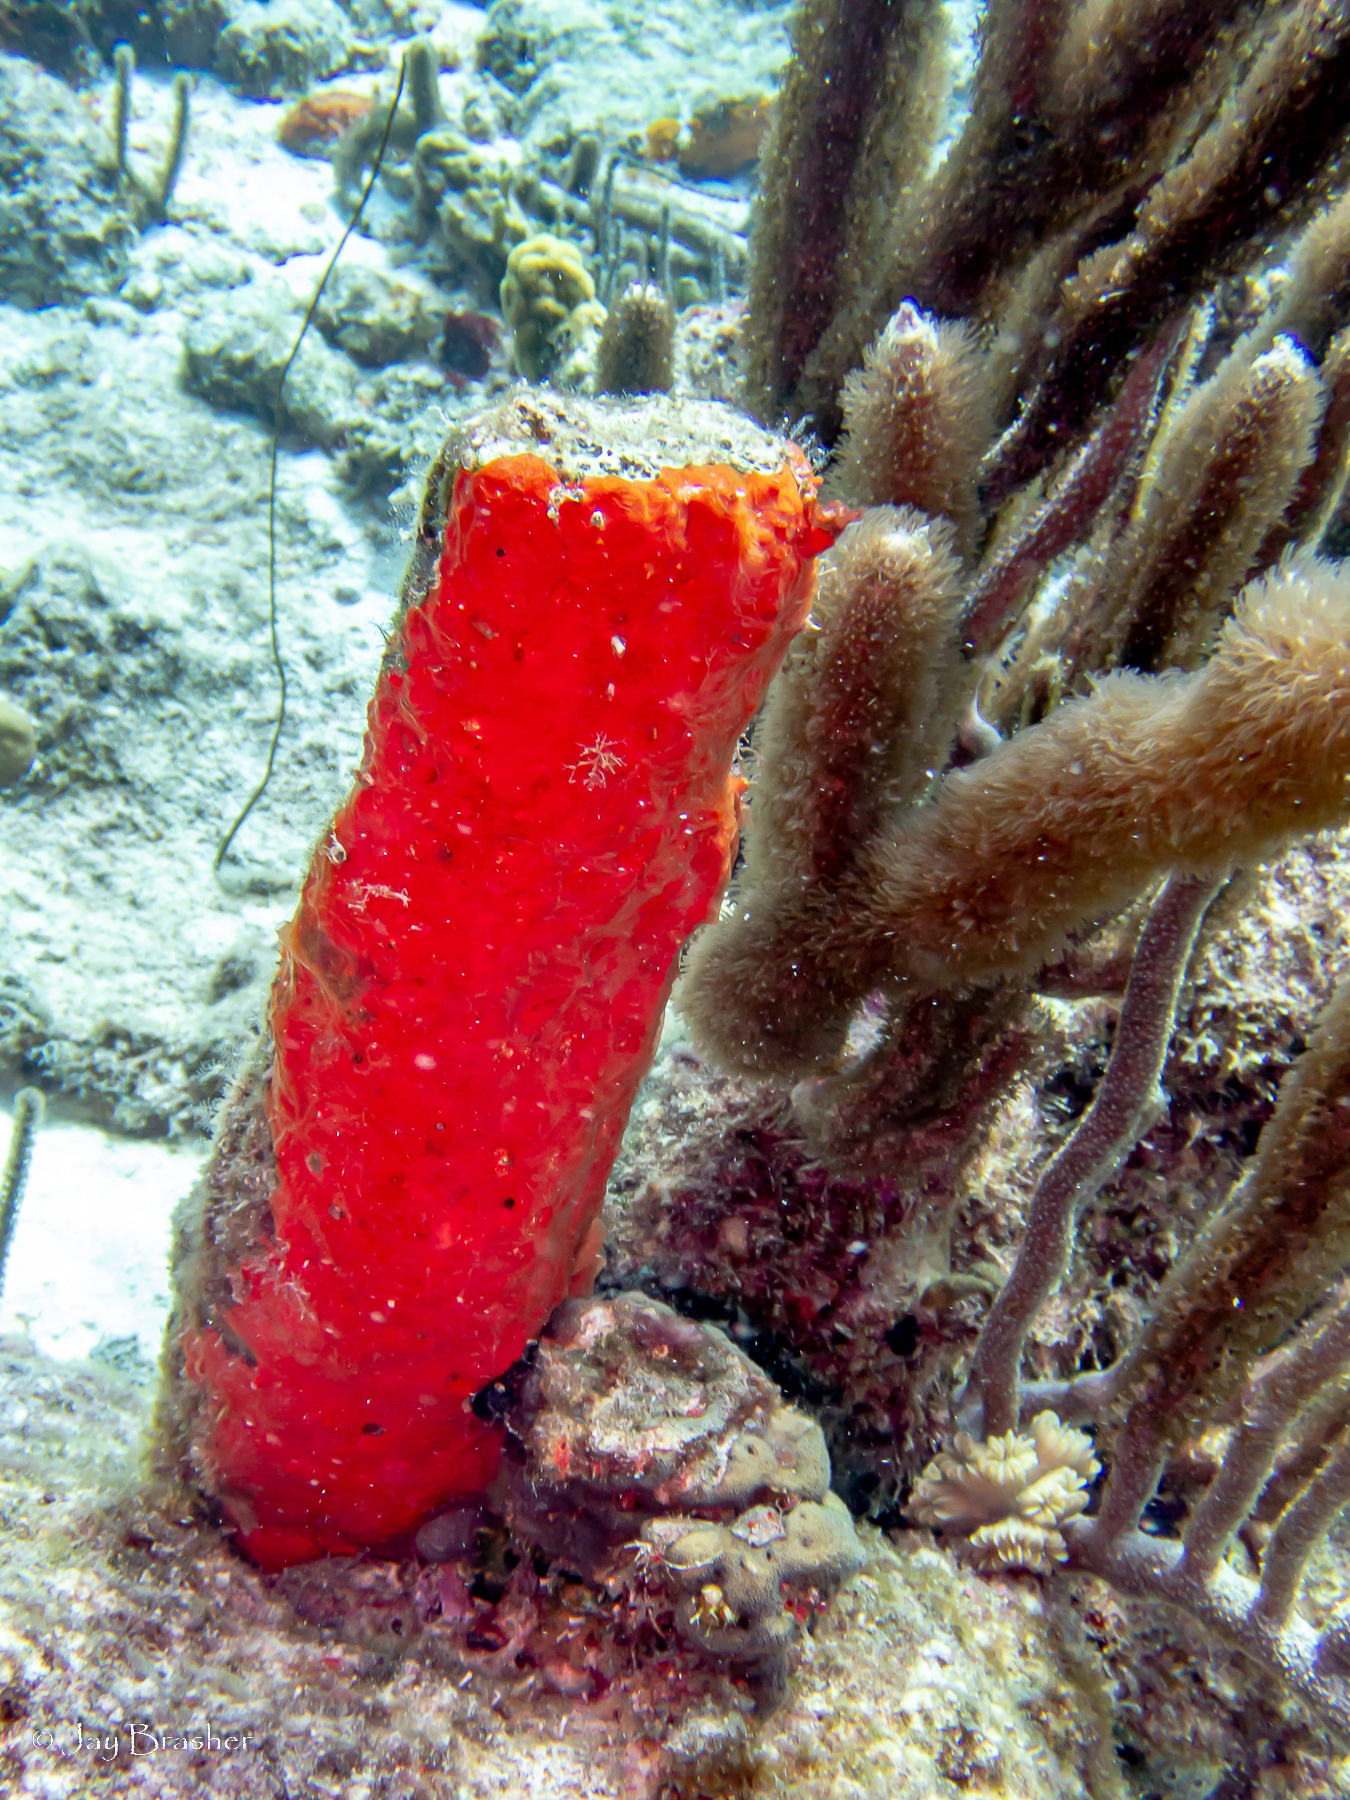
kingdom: Animalia
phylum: Porifera
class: Demospongiae
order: Poecilosclerida
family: Microcionidae
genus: Clathria
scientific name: Clathria bulbotoxa
